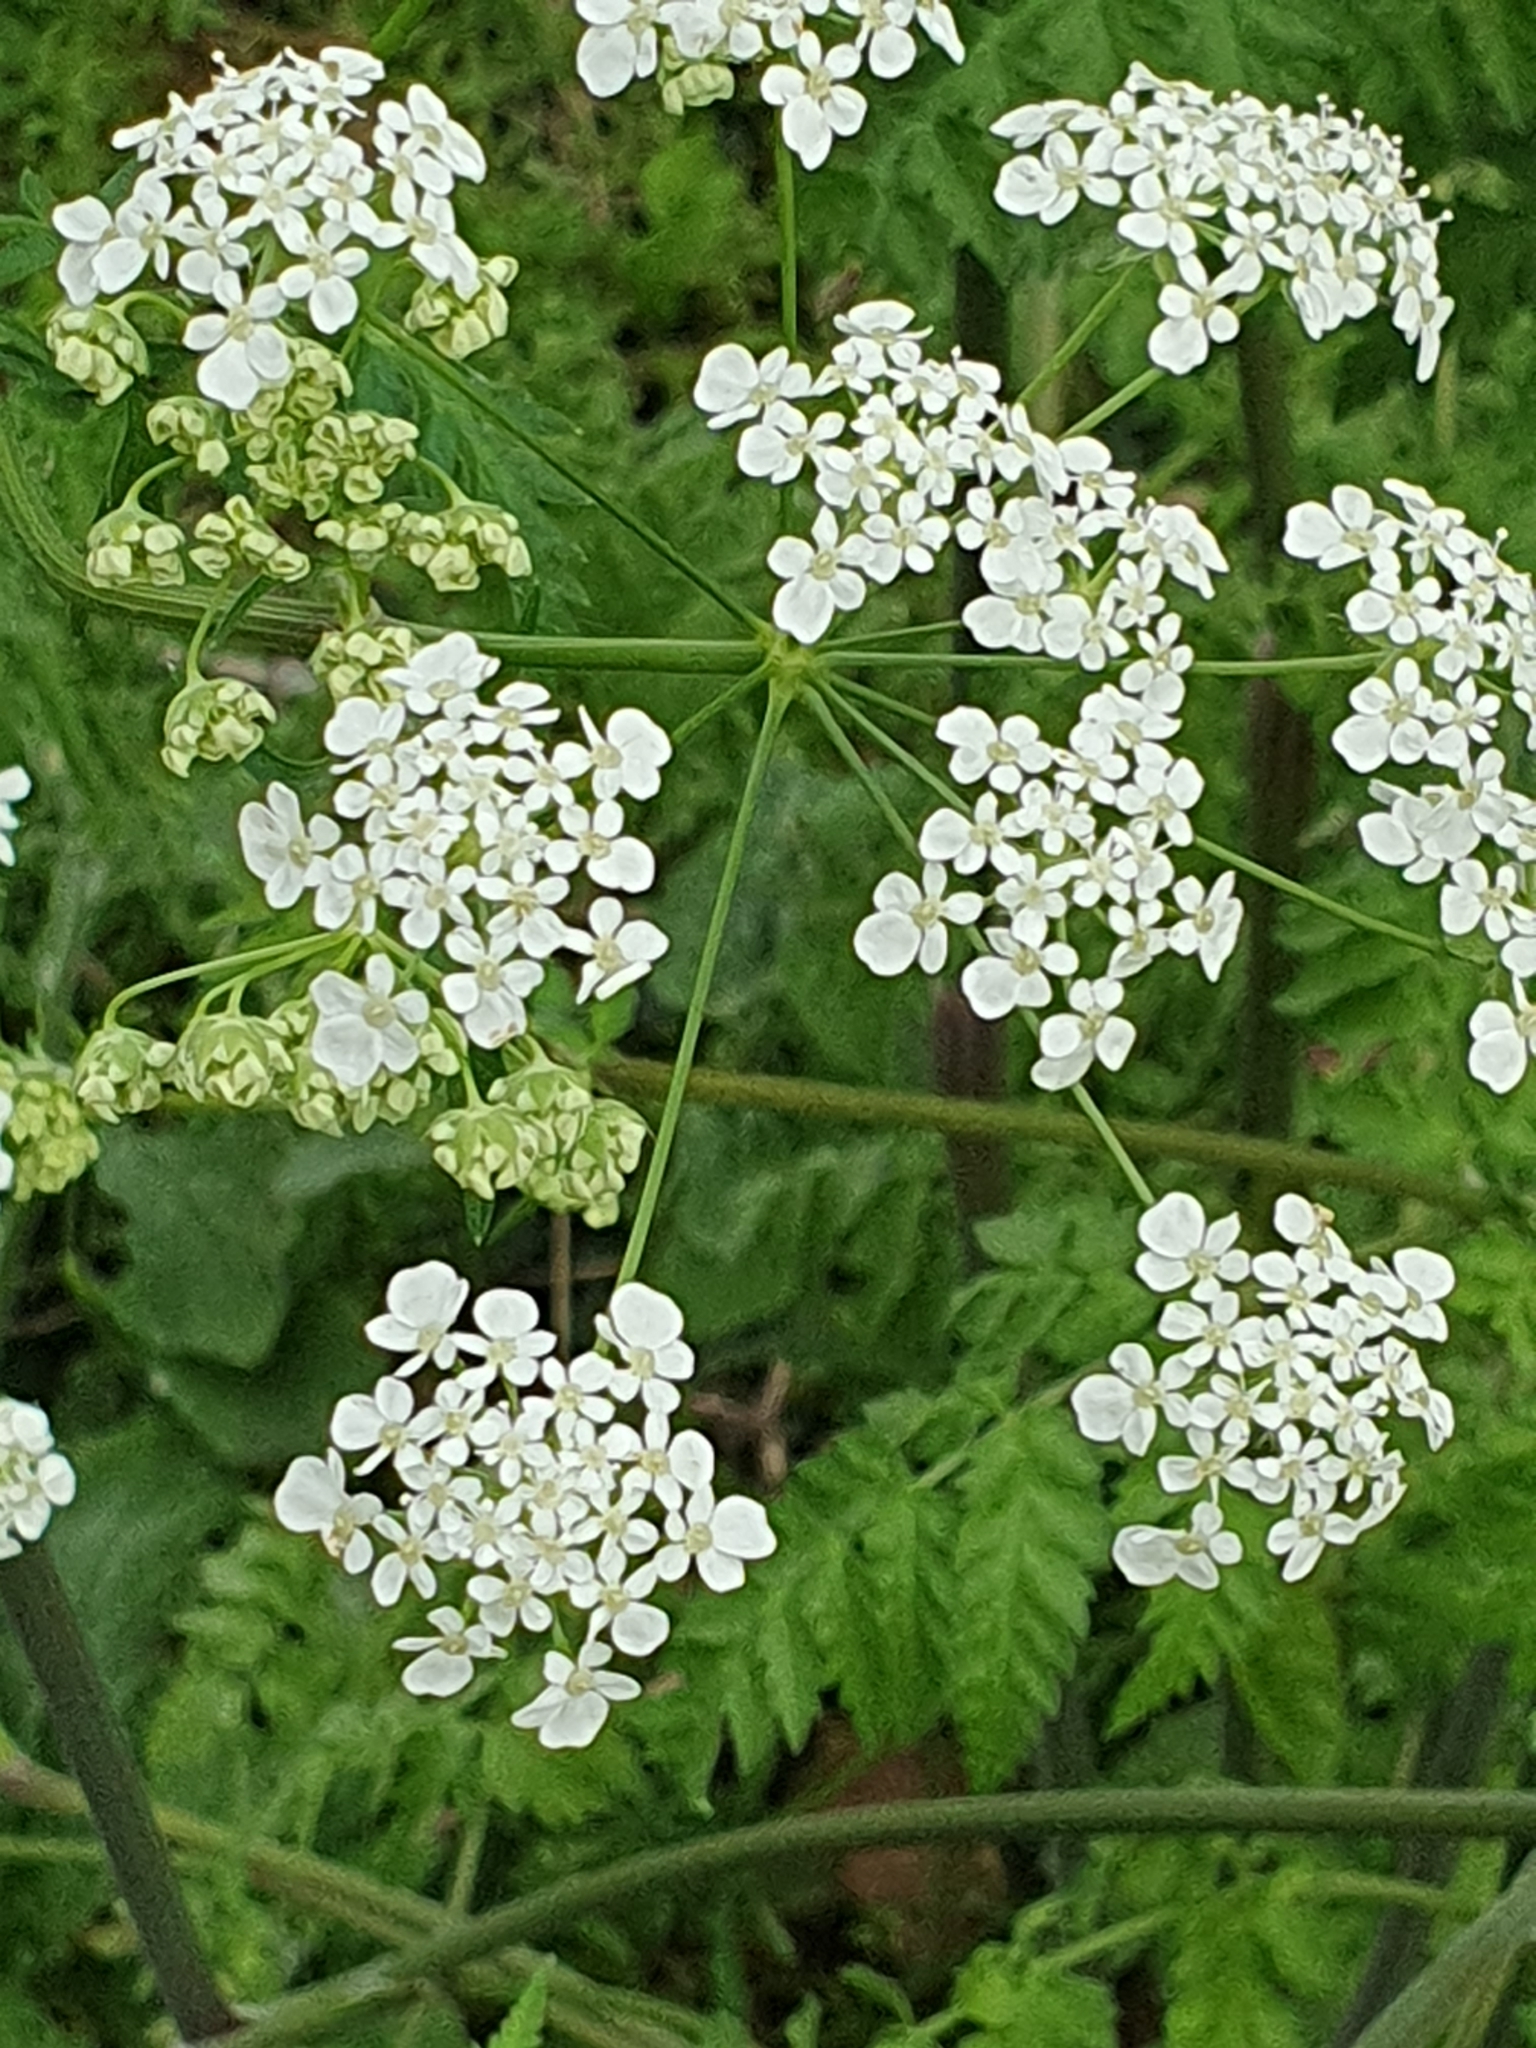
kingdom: Plantae
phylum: Tracheophyta
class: Magnoliopsida
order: Apiales
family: Apiaceae
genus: Anthriscus
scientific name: Anthriscus sylvestris
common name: Cow parsley
